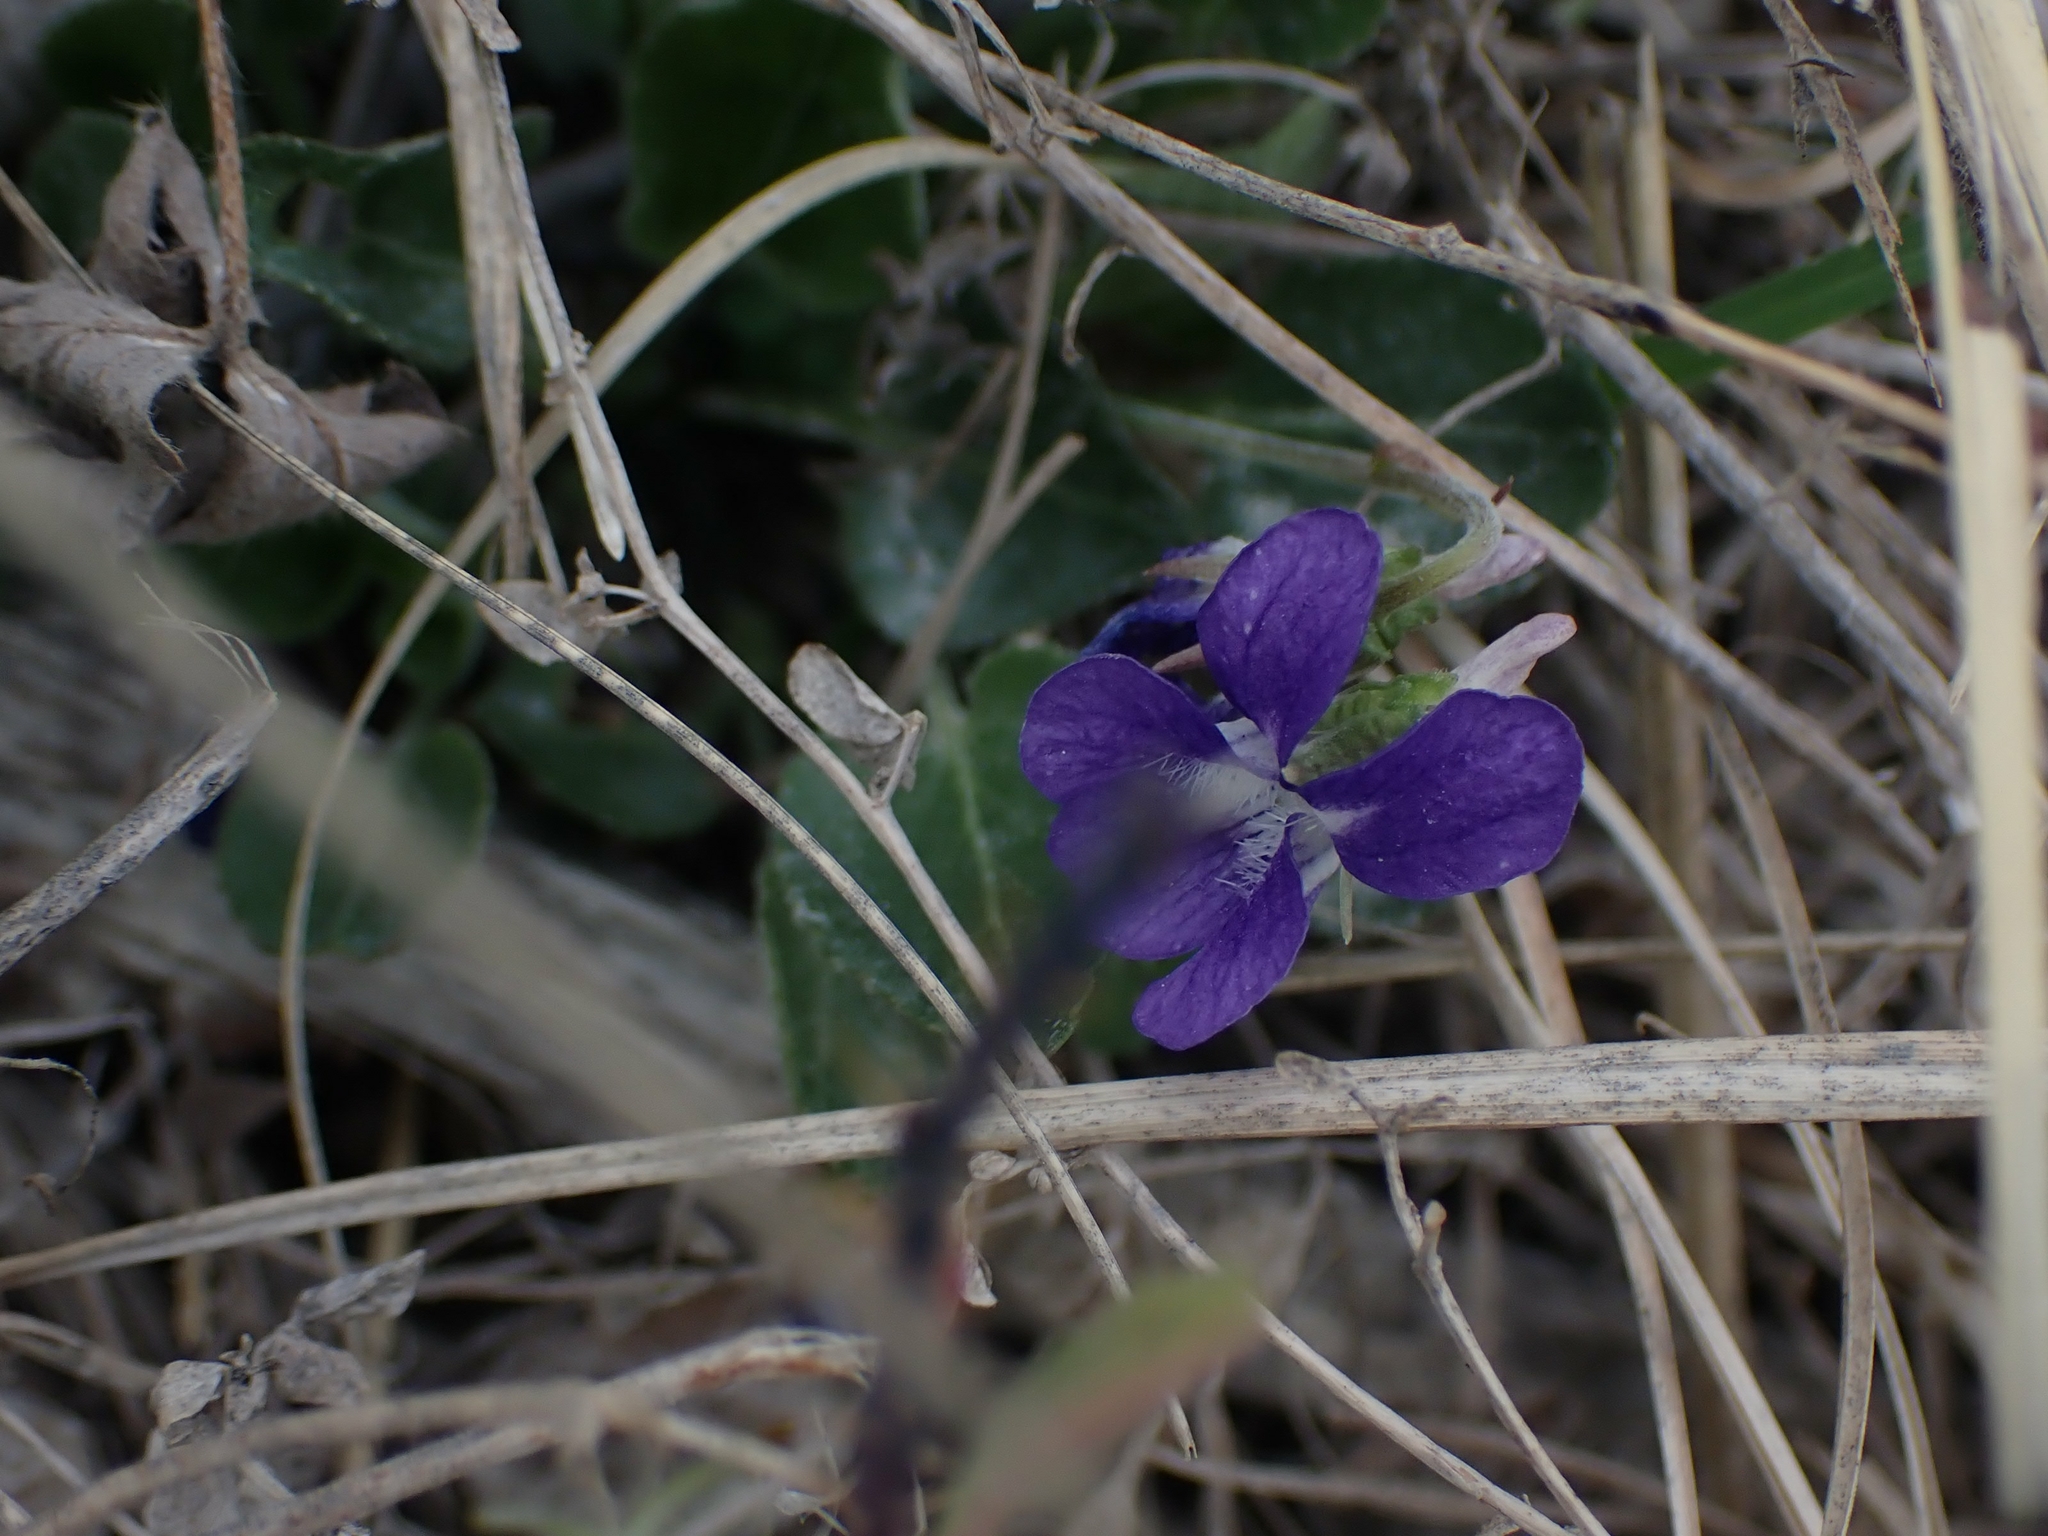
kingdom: Plantae
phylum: Tracheophyta
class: Magnoliopsida
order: Malpighiales
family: Violaceae
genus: Viola
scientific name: Viola adunca
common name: Sand violet
